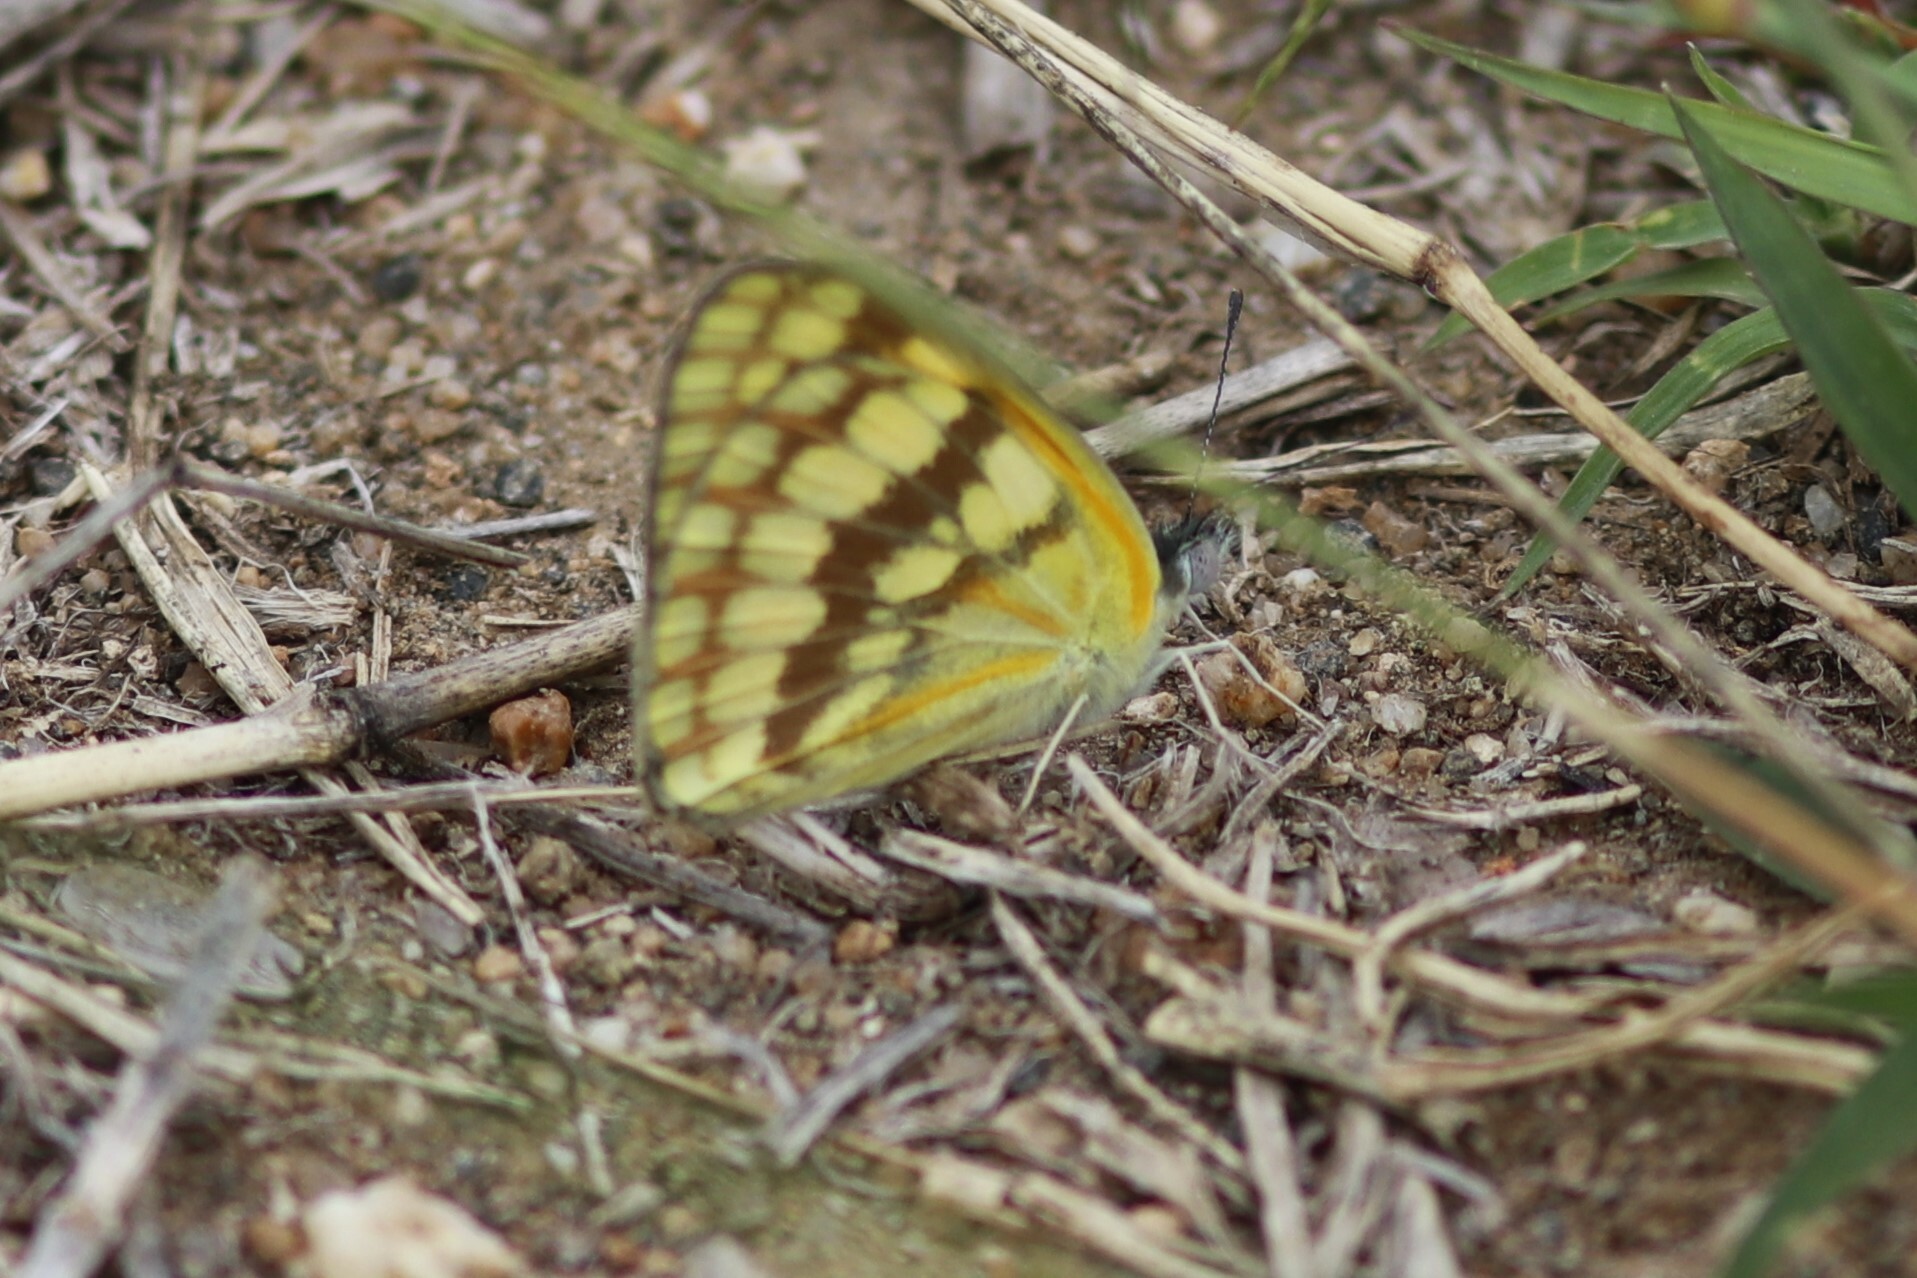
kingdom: Animalia
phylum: Arthropoda
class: Insecta
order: Lepidoptera
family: Pieridae
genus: Colotis
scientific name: Colotis vesta
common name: Veined golden arab
